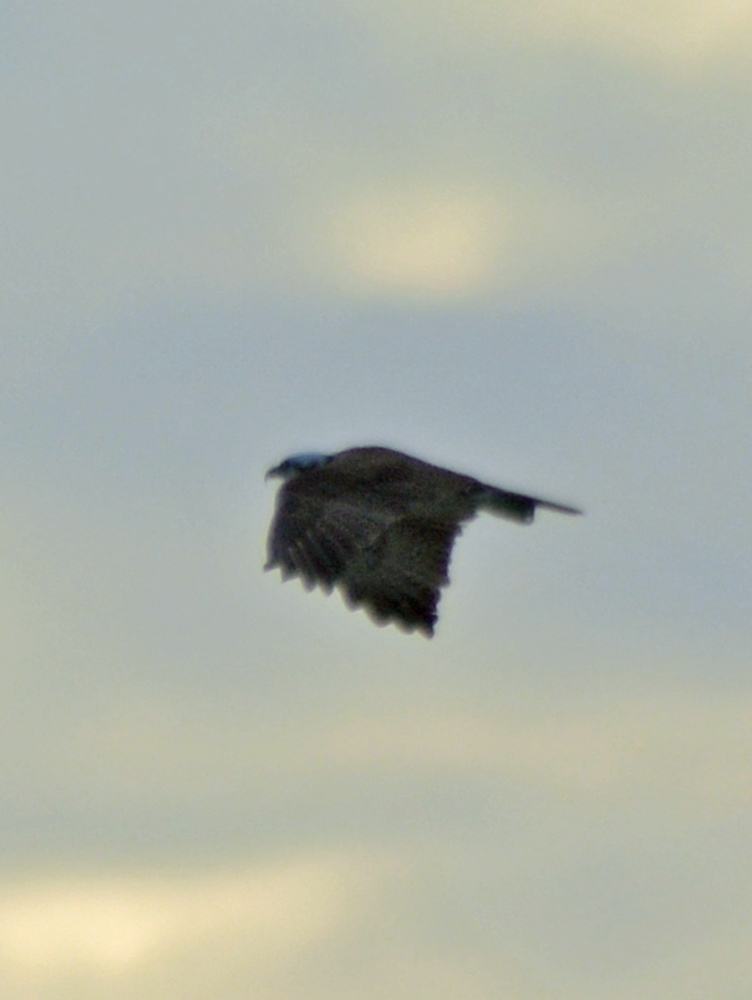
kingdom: Animalia
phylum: Chordata
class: Aves
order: Accipitriformes
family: Pandionidae
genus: Pandion
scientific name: Pandion haliaetus
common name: Osprey
